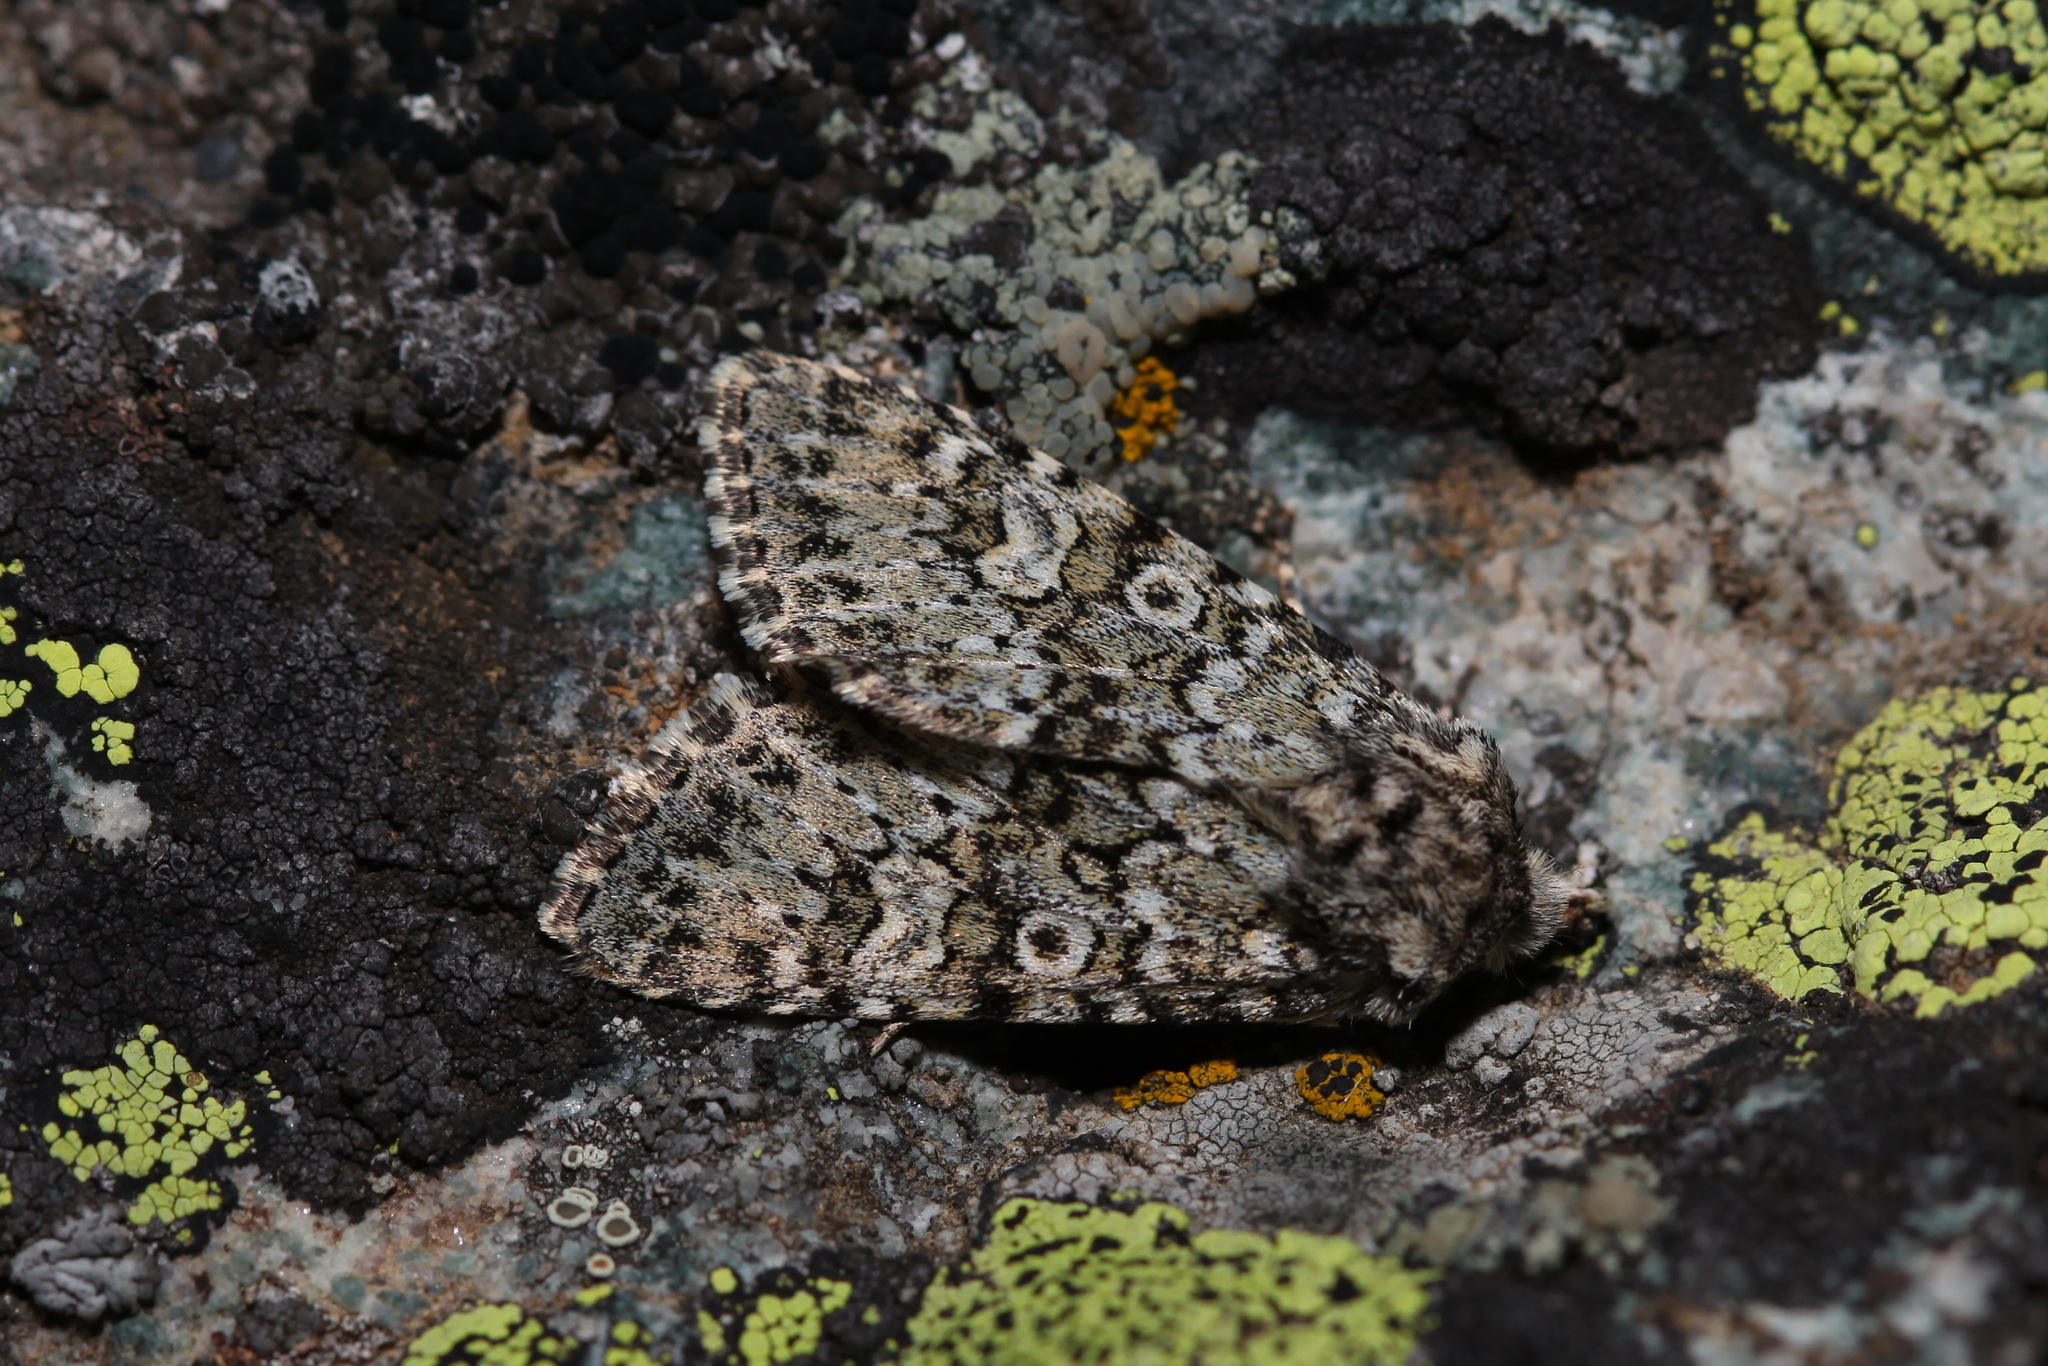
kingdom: Animalia
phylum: Arthropoda
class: Insecta
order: Lepidoptera
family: Noctuidae
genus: Lasionycta
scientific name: Lasionycta hampsoni
